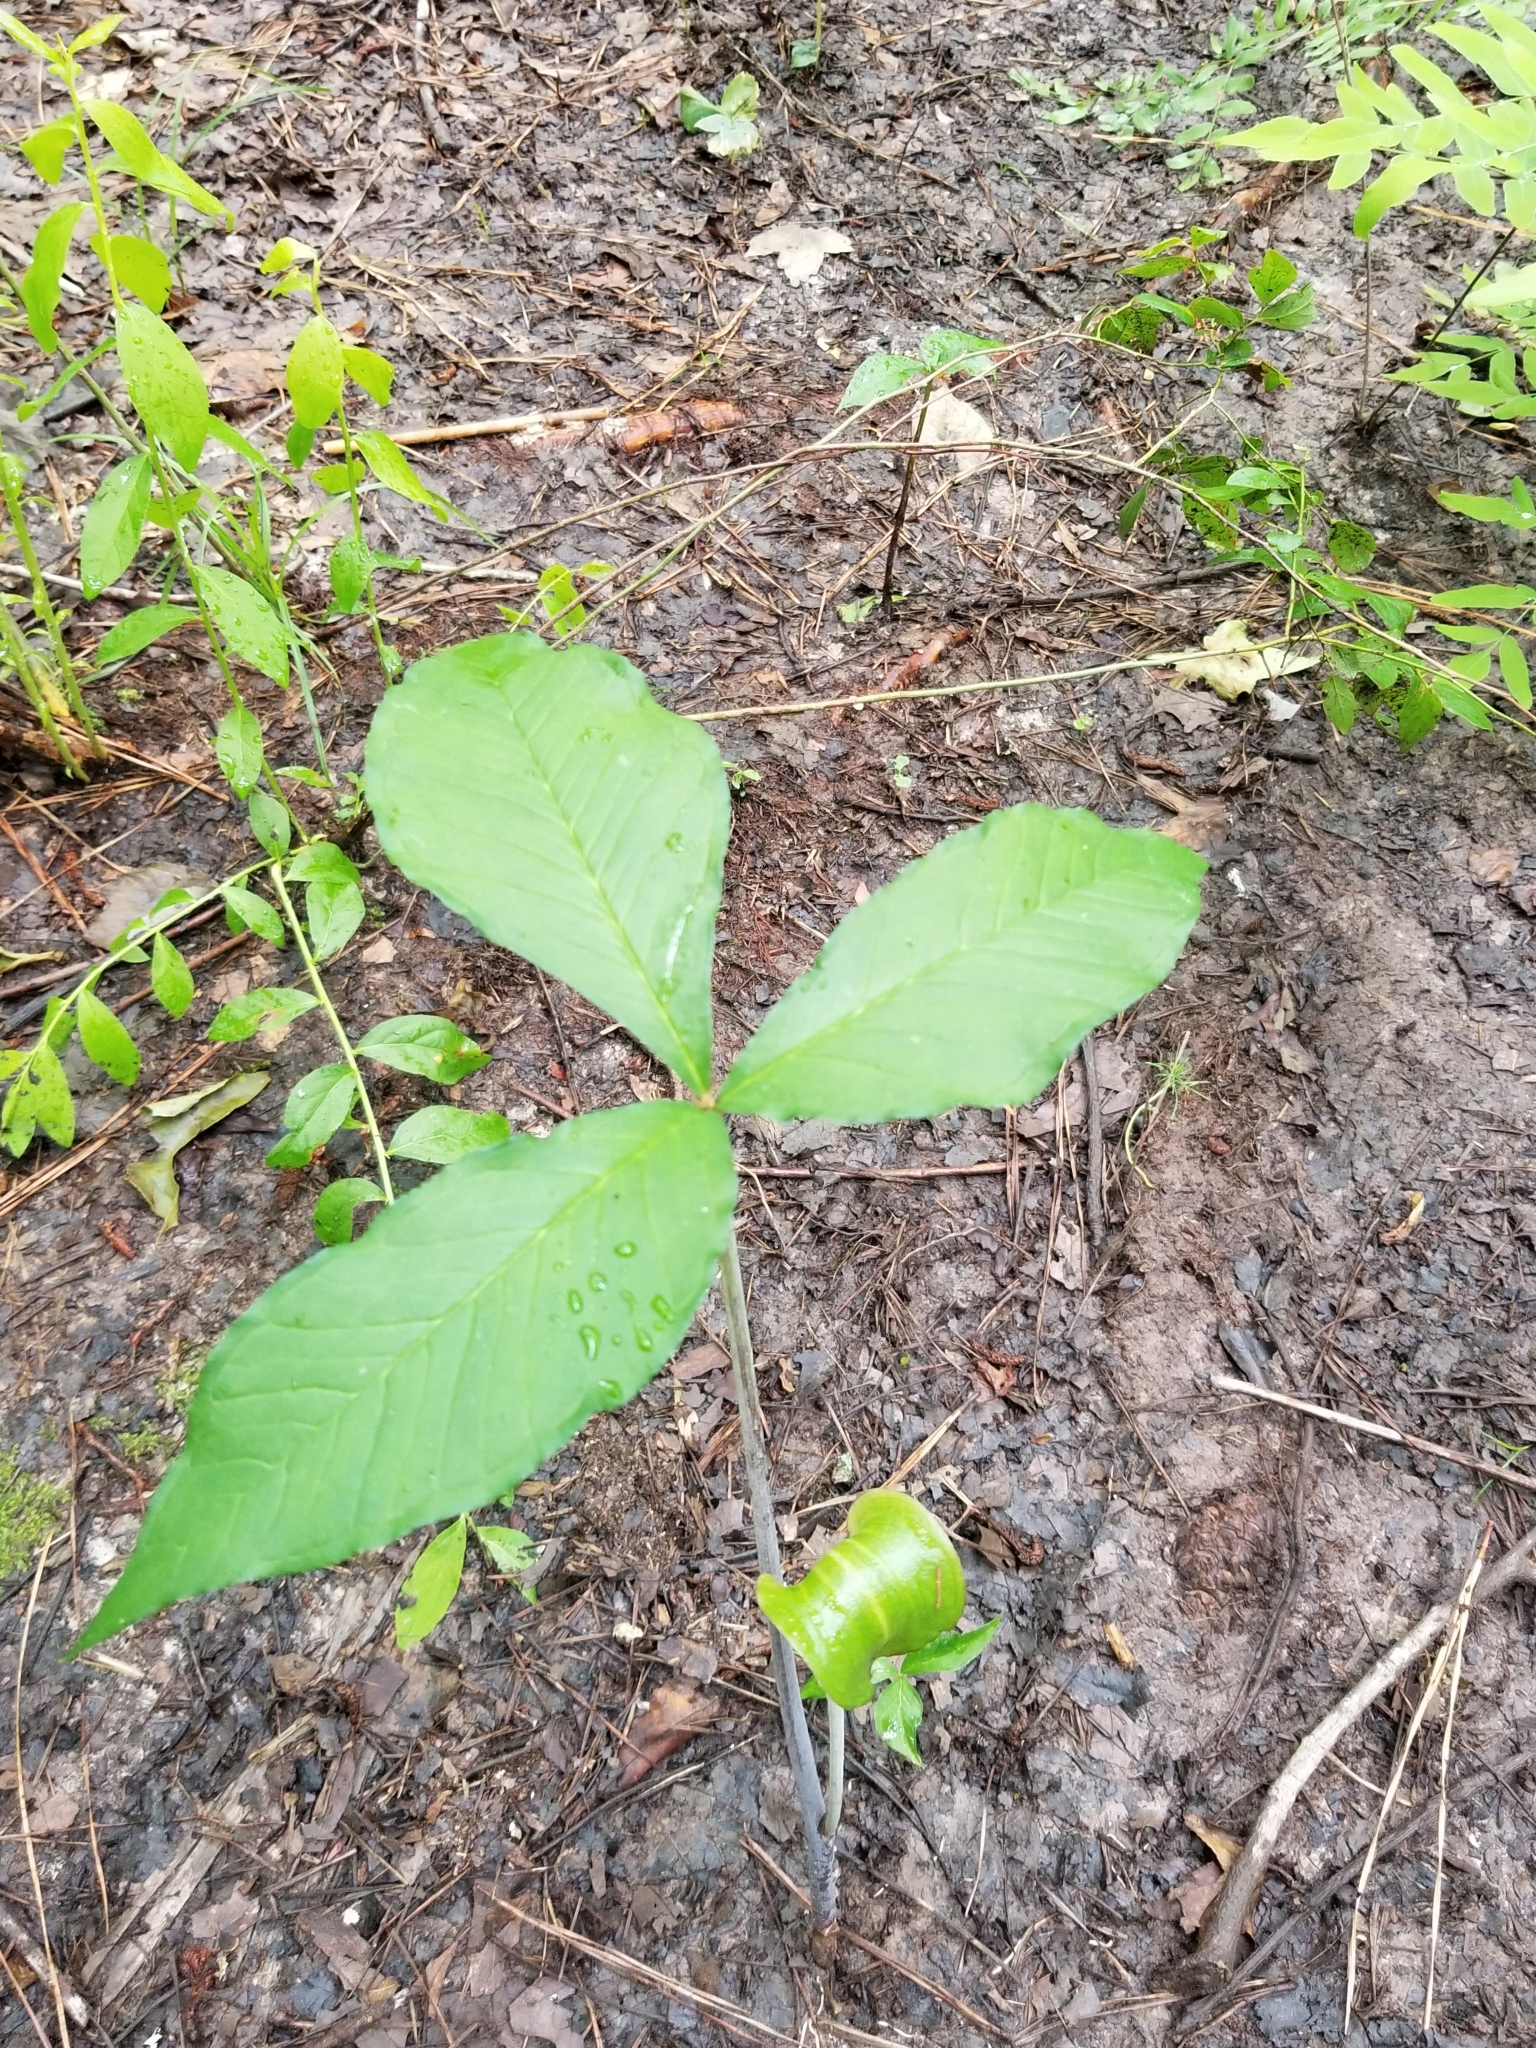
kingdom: Plantae
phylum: Tracheophyta
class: Liliopsida
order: Alismatales
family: Araceae
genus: Arisaema
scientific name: Arisaema triphyllum
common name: Jack-in-the-pulpit
